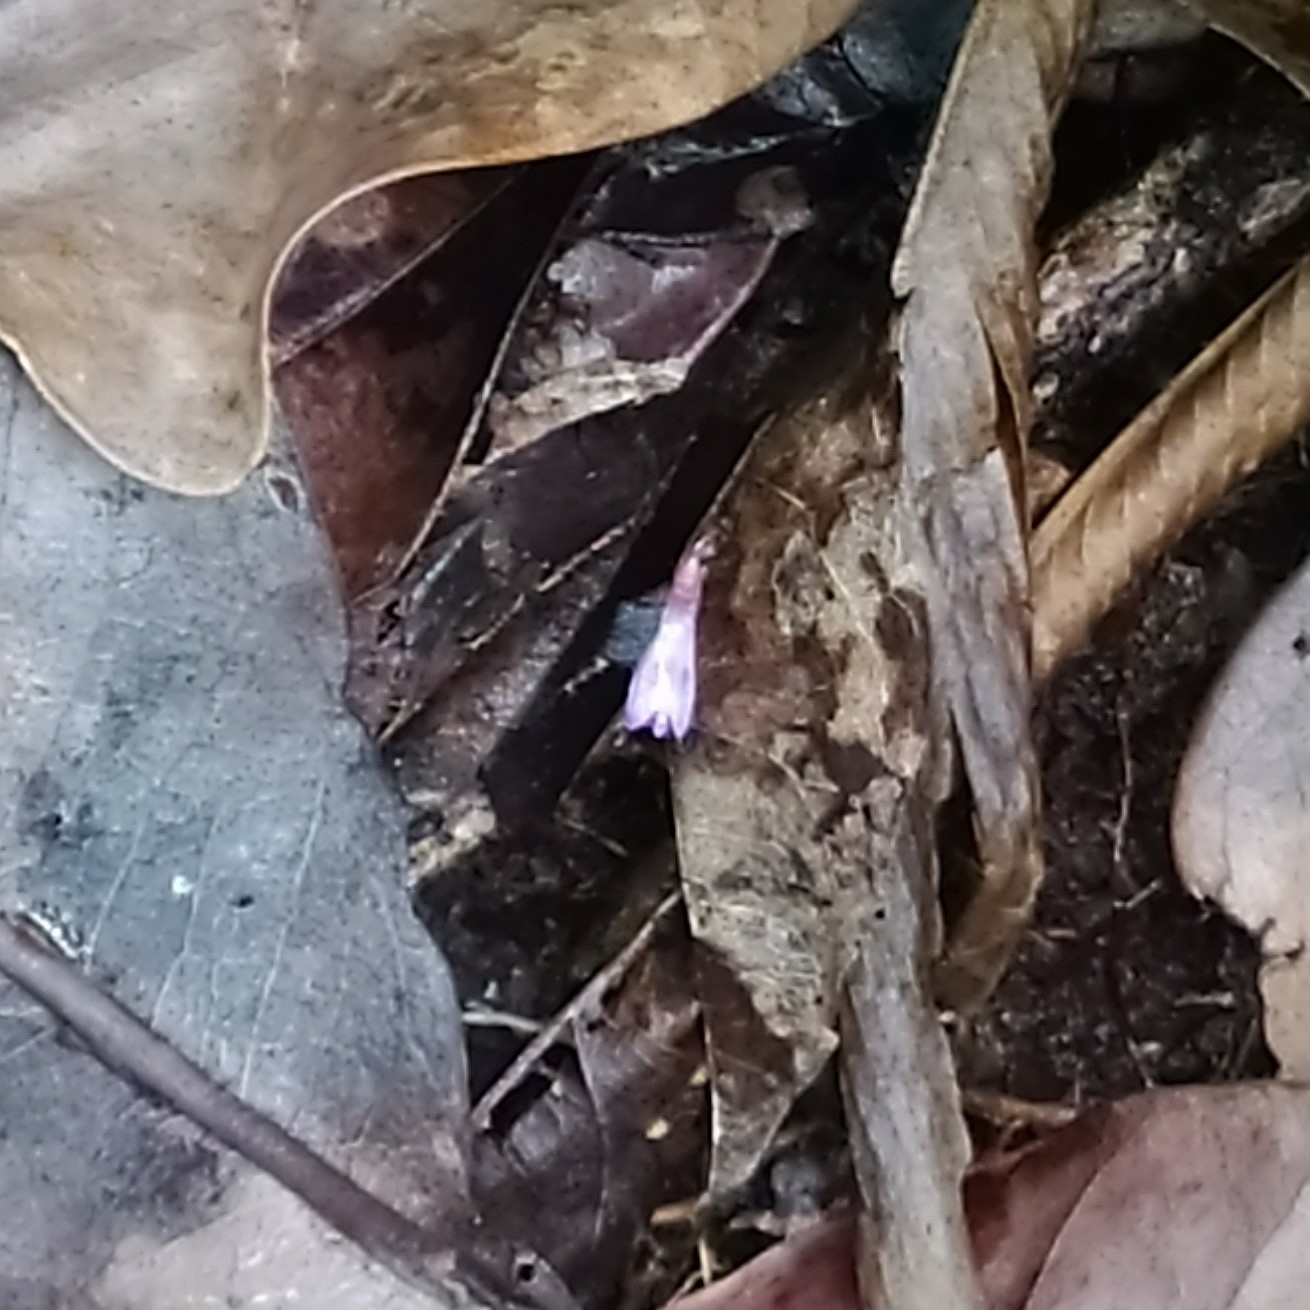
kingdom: Plantae
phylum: Tracheophyta
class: Liliopsida
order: Dioscoreales
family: Burmanniaceae
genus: Apteria
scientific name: Apteria aphylla
